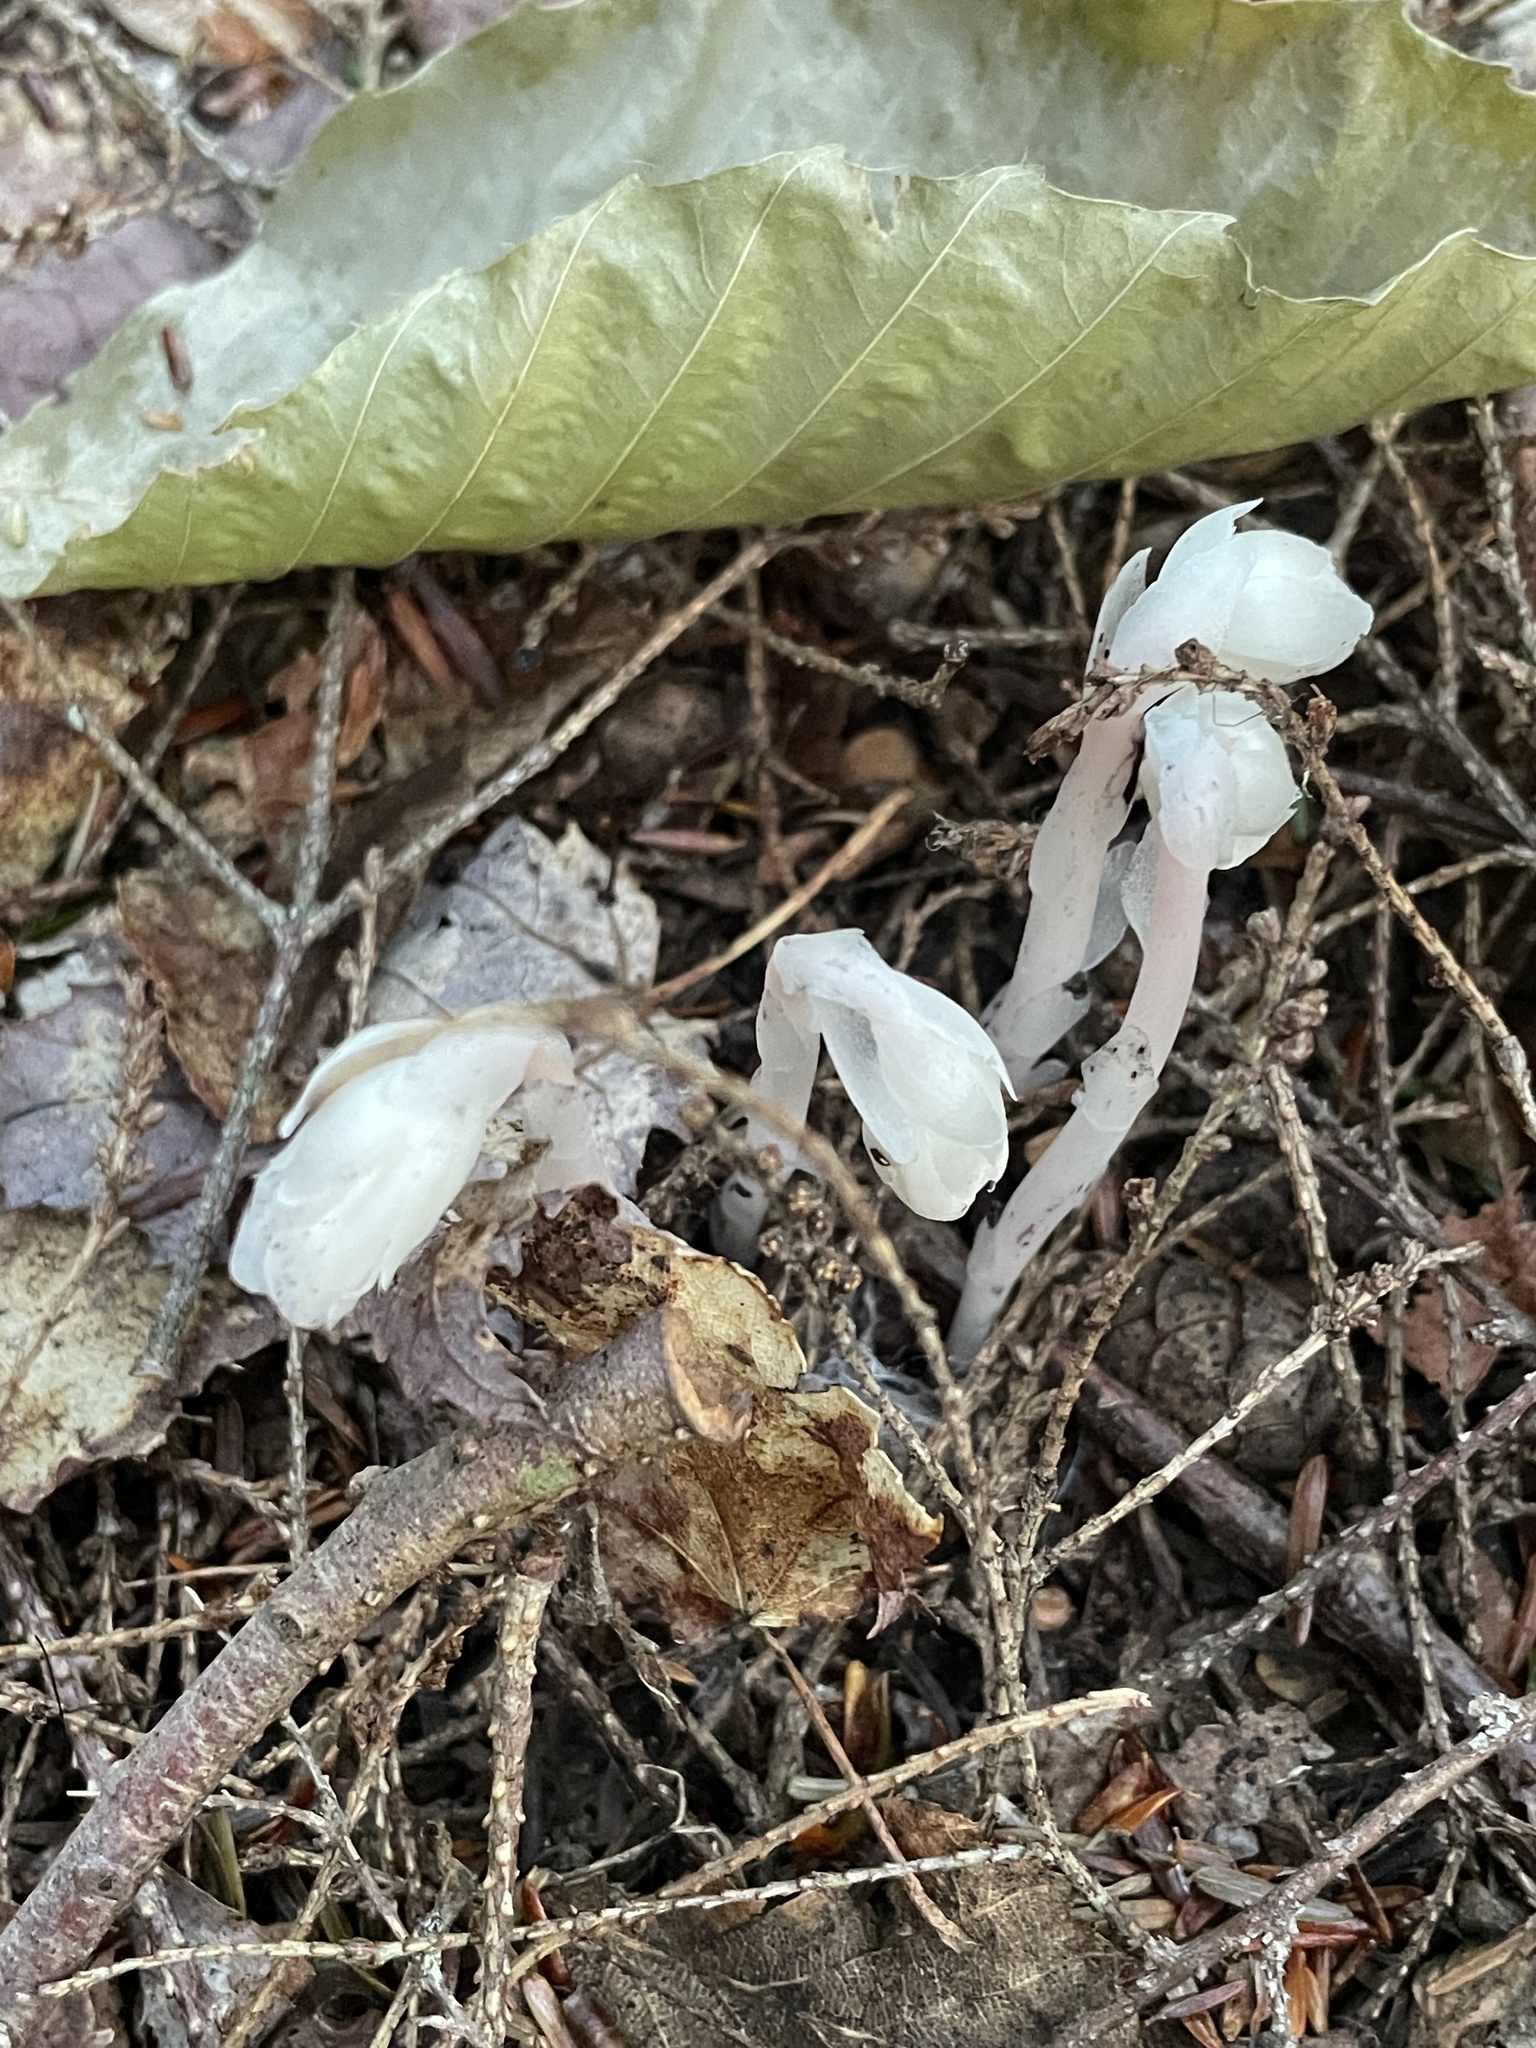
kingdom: Plantae
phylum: Tracheophyta
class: Magnoliopsida
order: Ericales
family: Ericaceae
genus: Monotropa
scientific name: Monotropa uniflora
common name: Convulsion root
